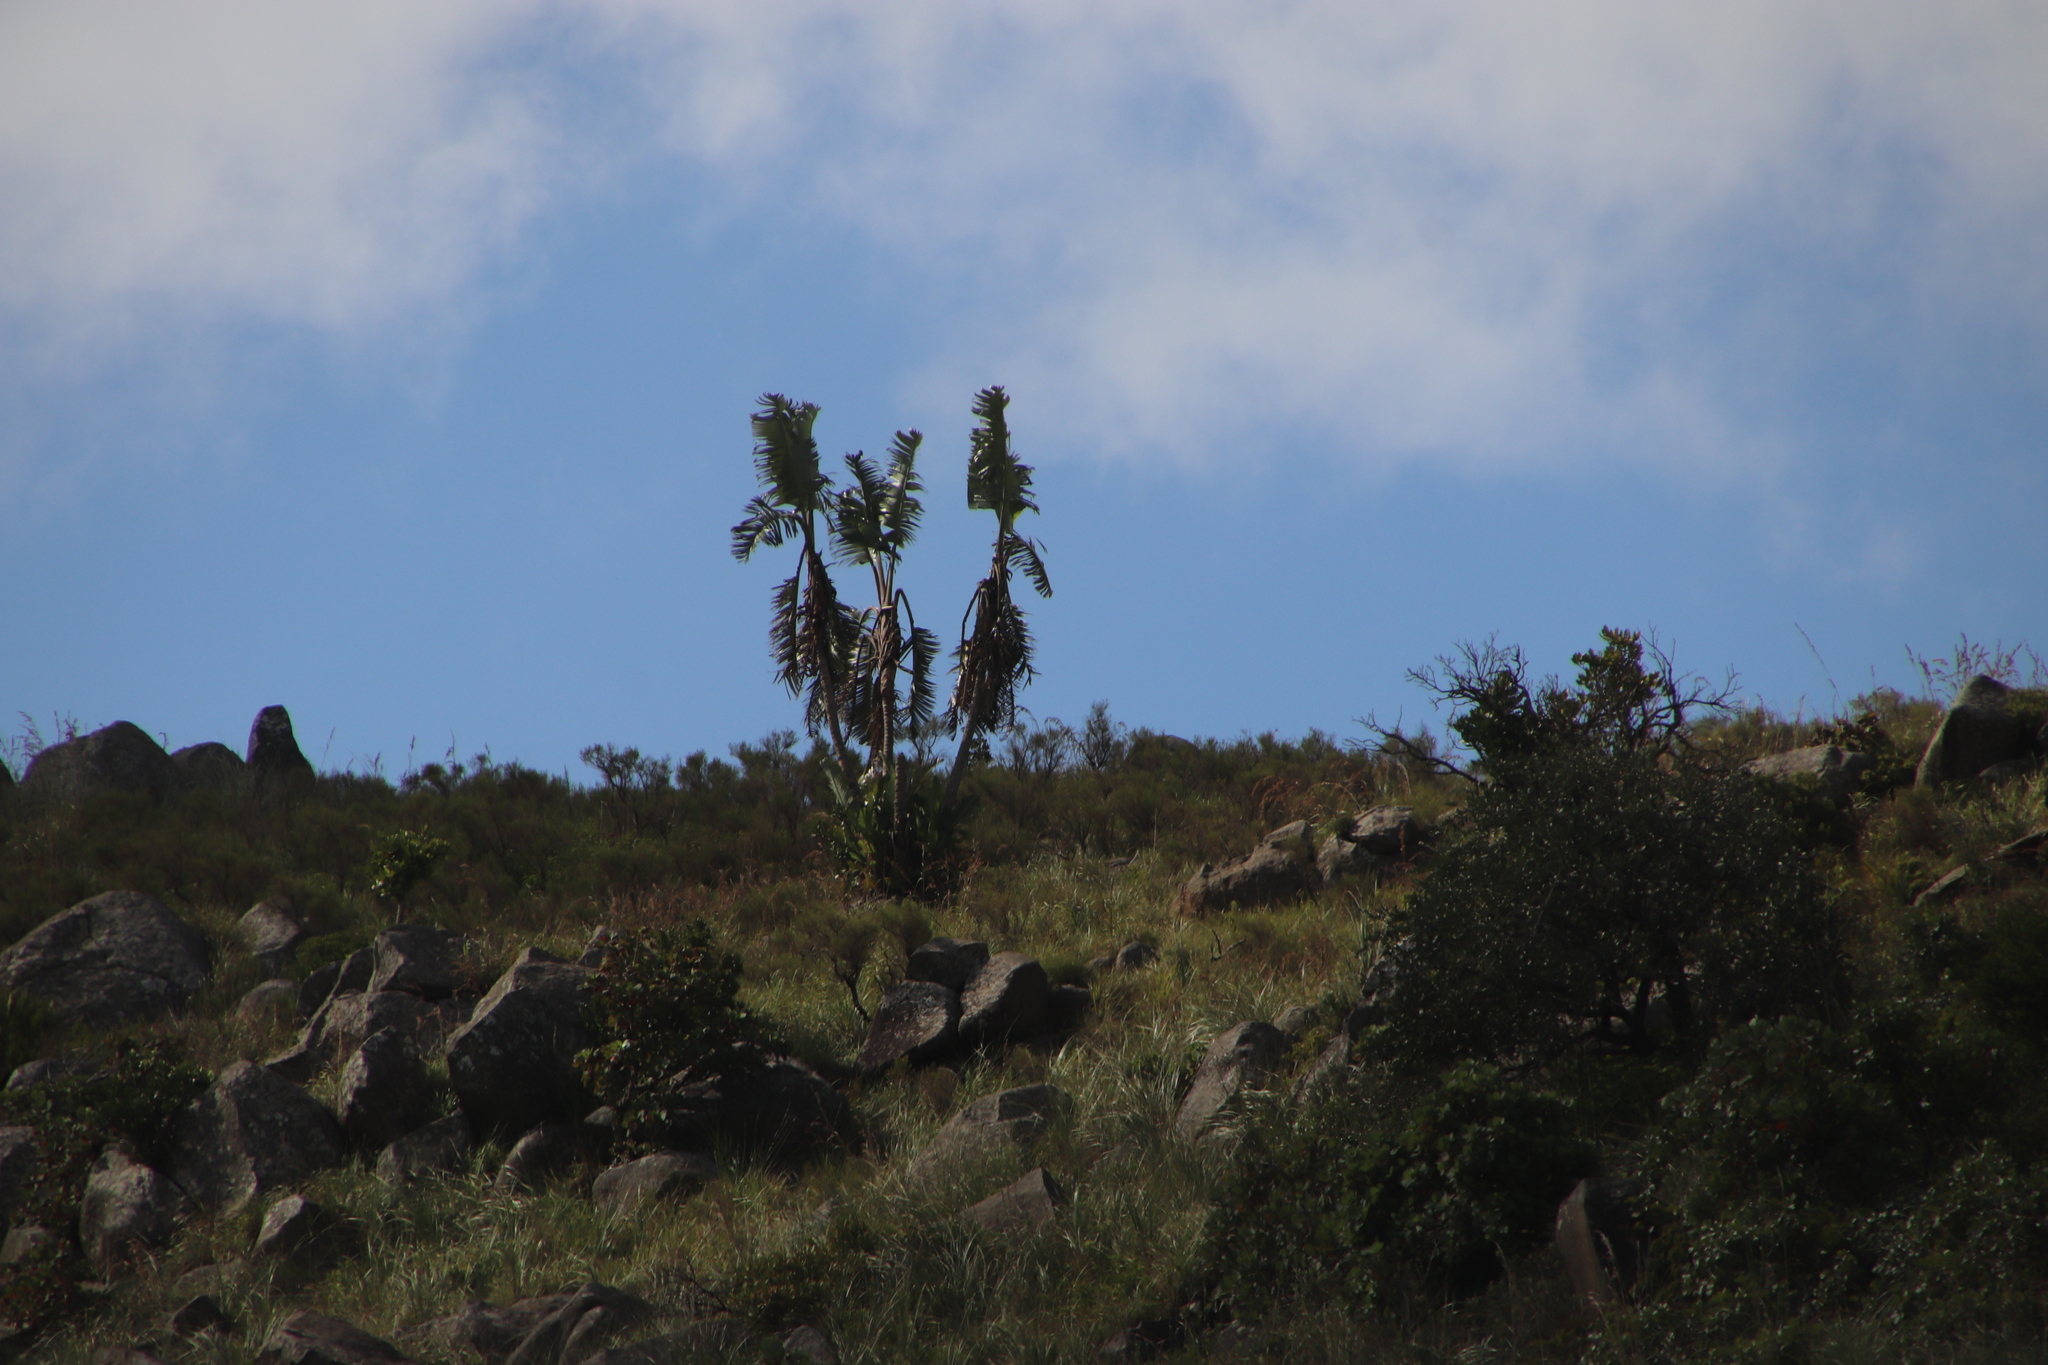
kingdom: Plantae
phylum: Tracheophyta
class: Liliopsida
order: Zingiberales
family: Strelitziaceae
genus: Strelitzia
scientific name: Strelitzia caudata
